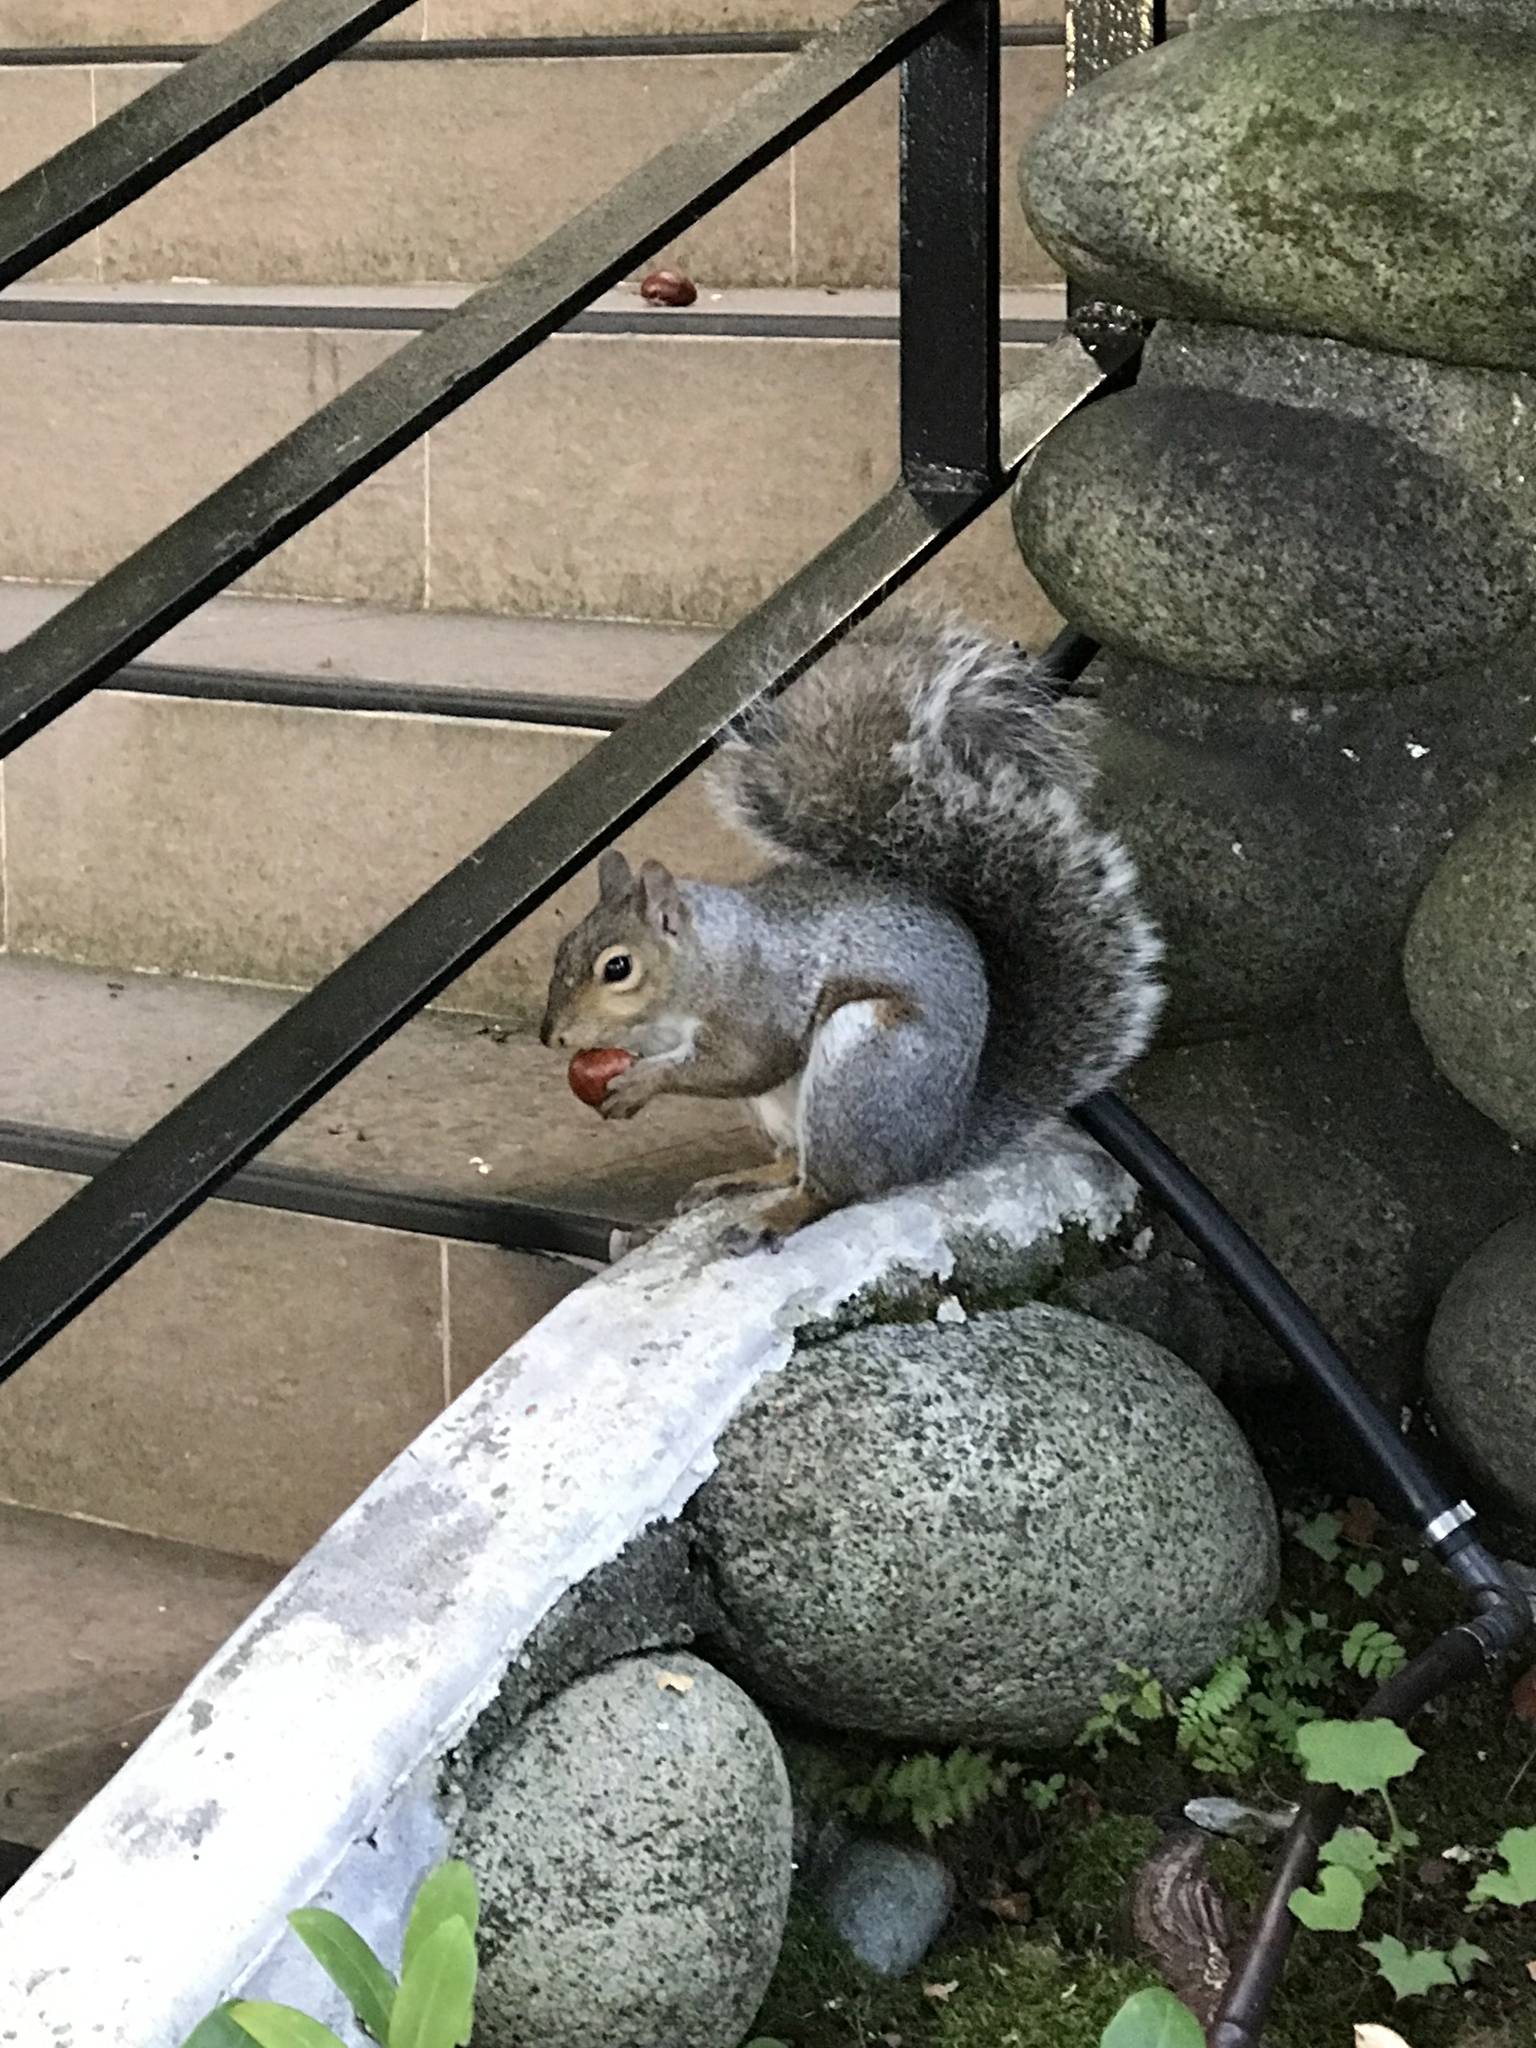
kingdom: Animalia
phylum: Chordata
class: Mammalia
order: Rodentia
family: Sciuridae
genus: Sciurus
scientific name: Sciurus carolinensis
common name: Eastern gray squirrel
